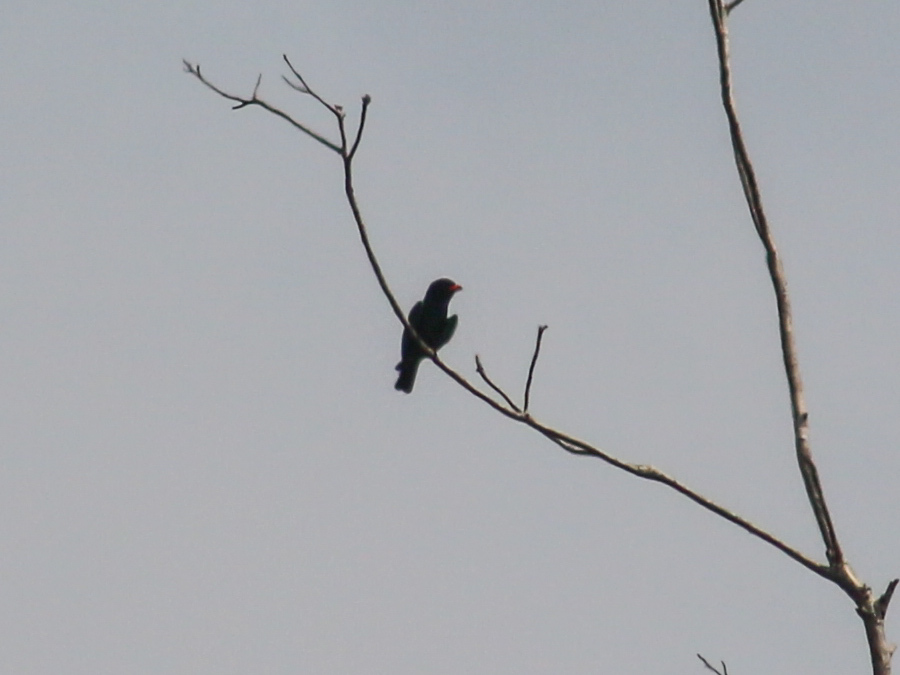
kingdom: Animalia
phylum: Chordata
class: Aves
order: Coraciiformes
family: Coraciidae
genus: Eurystomus
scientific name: Eurystomus orientalis
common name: Oriental dollarbird
